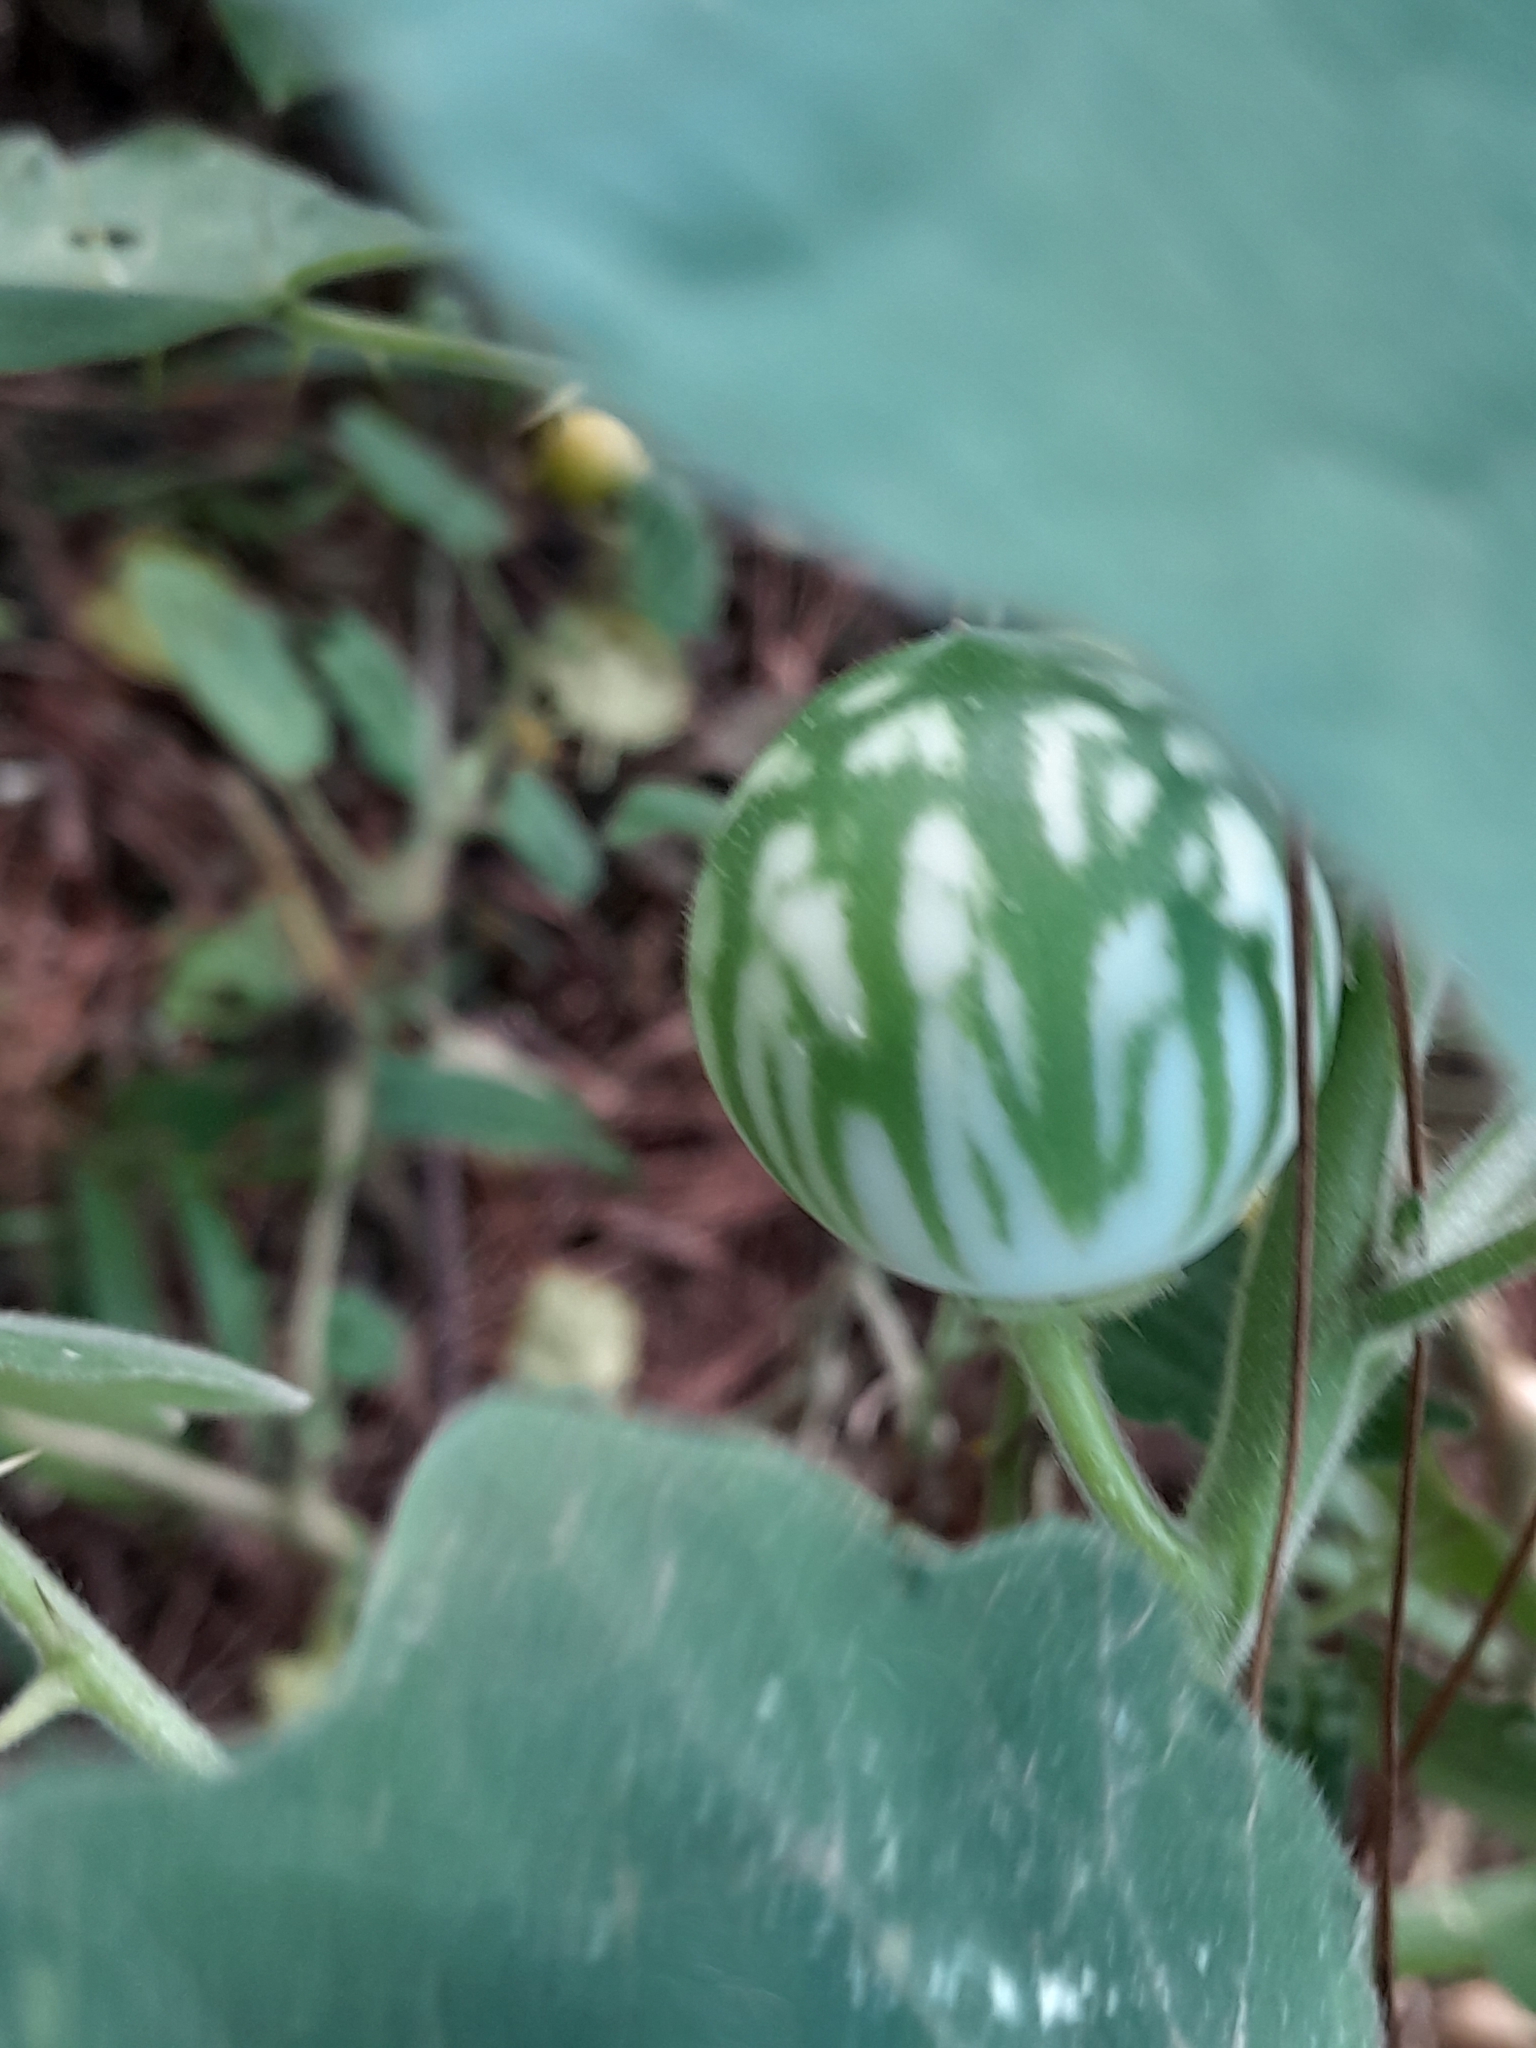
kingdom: Plantae
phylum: Tracheophyta
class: Magnoliopsida
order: Solanales
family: Solanaceae
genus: Solanum
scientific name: Solanum viarum
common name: Tropical soda apple
